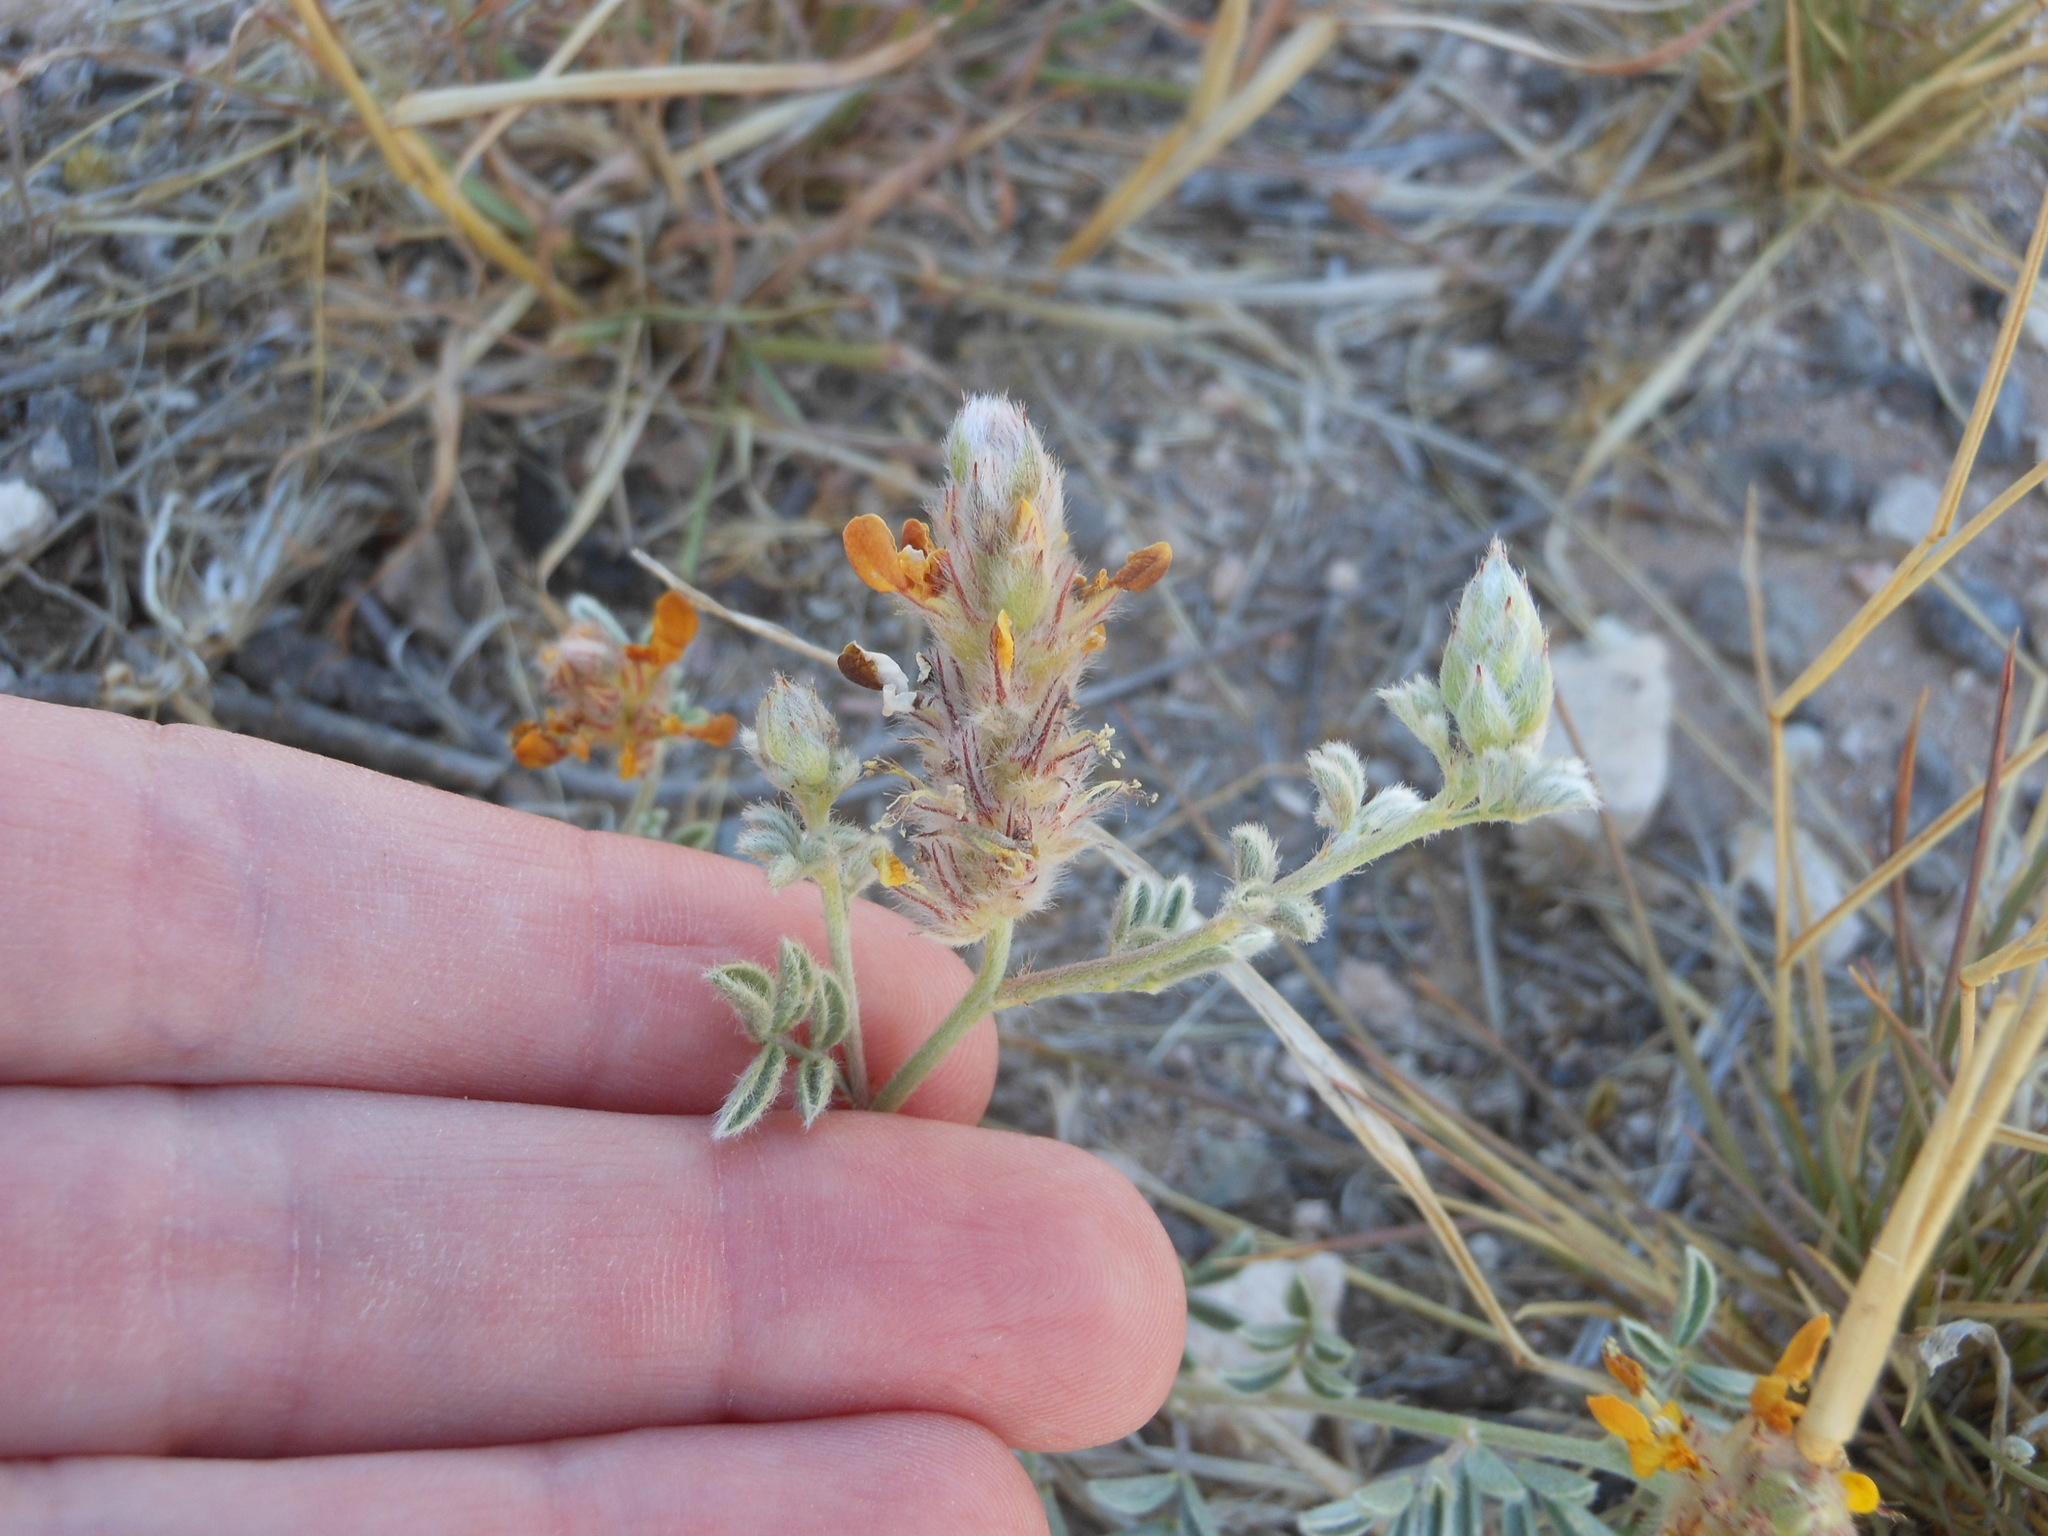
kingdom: Plantae
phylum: Tracheophyta
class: Magnoliopsida
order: Fabales
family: Fabaceae
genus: Dalea
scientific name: Dalea nana
